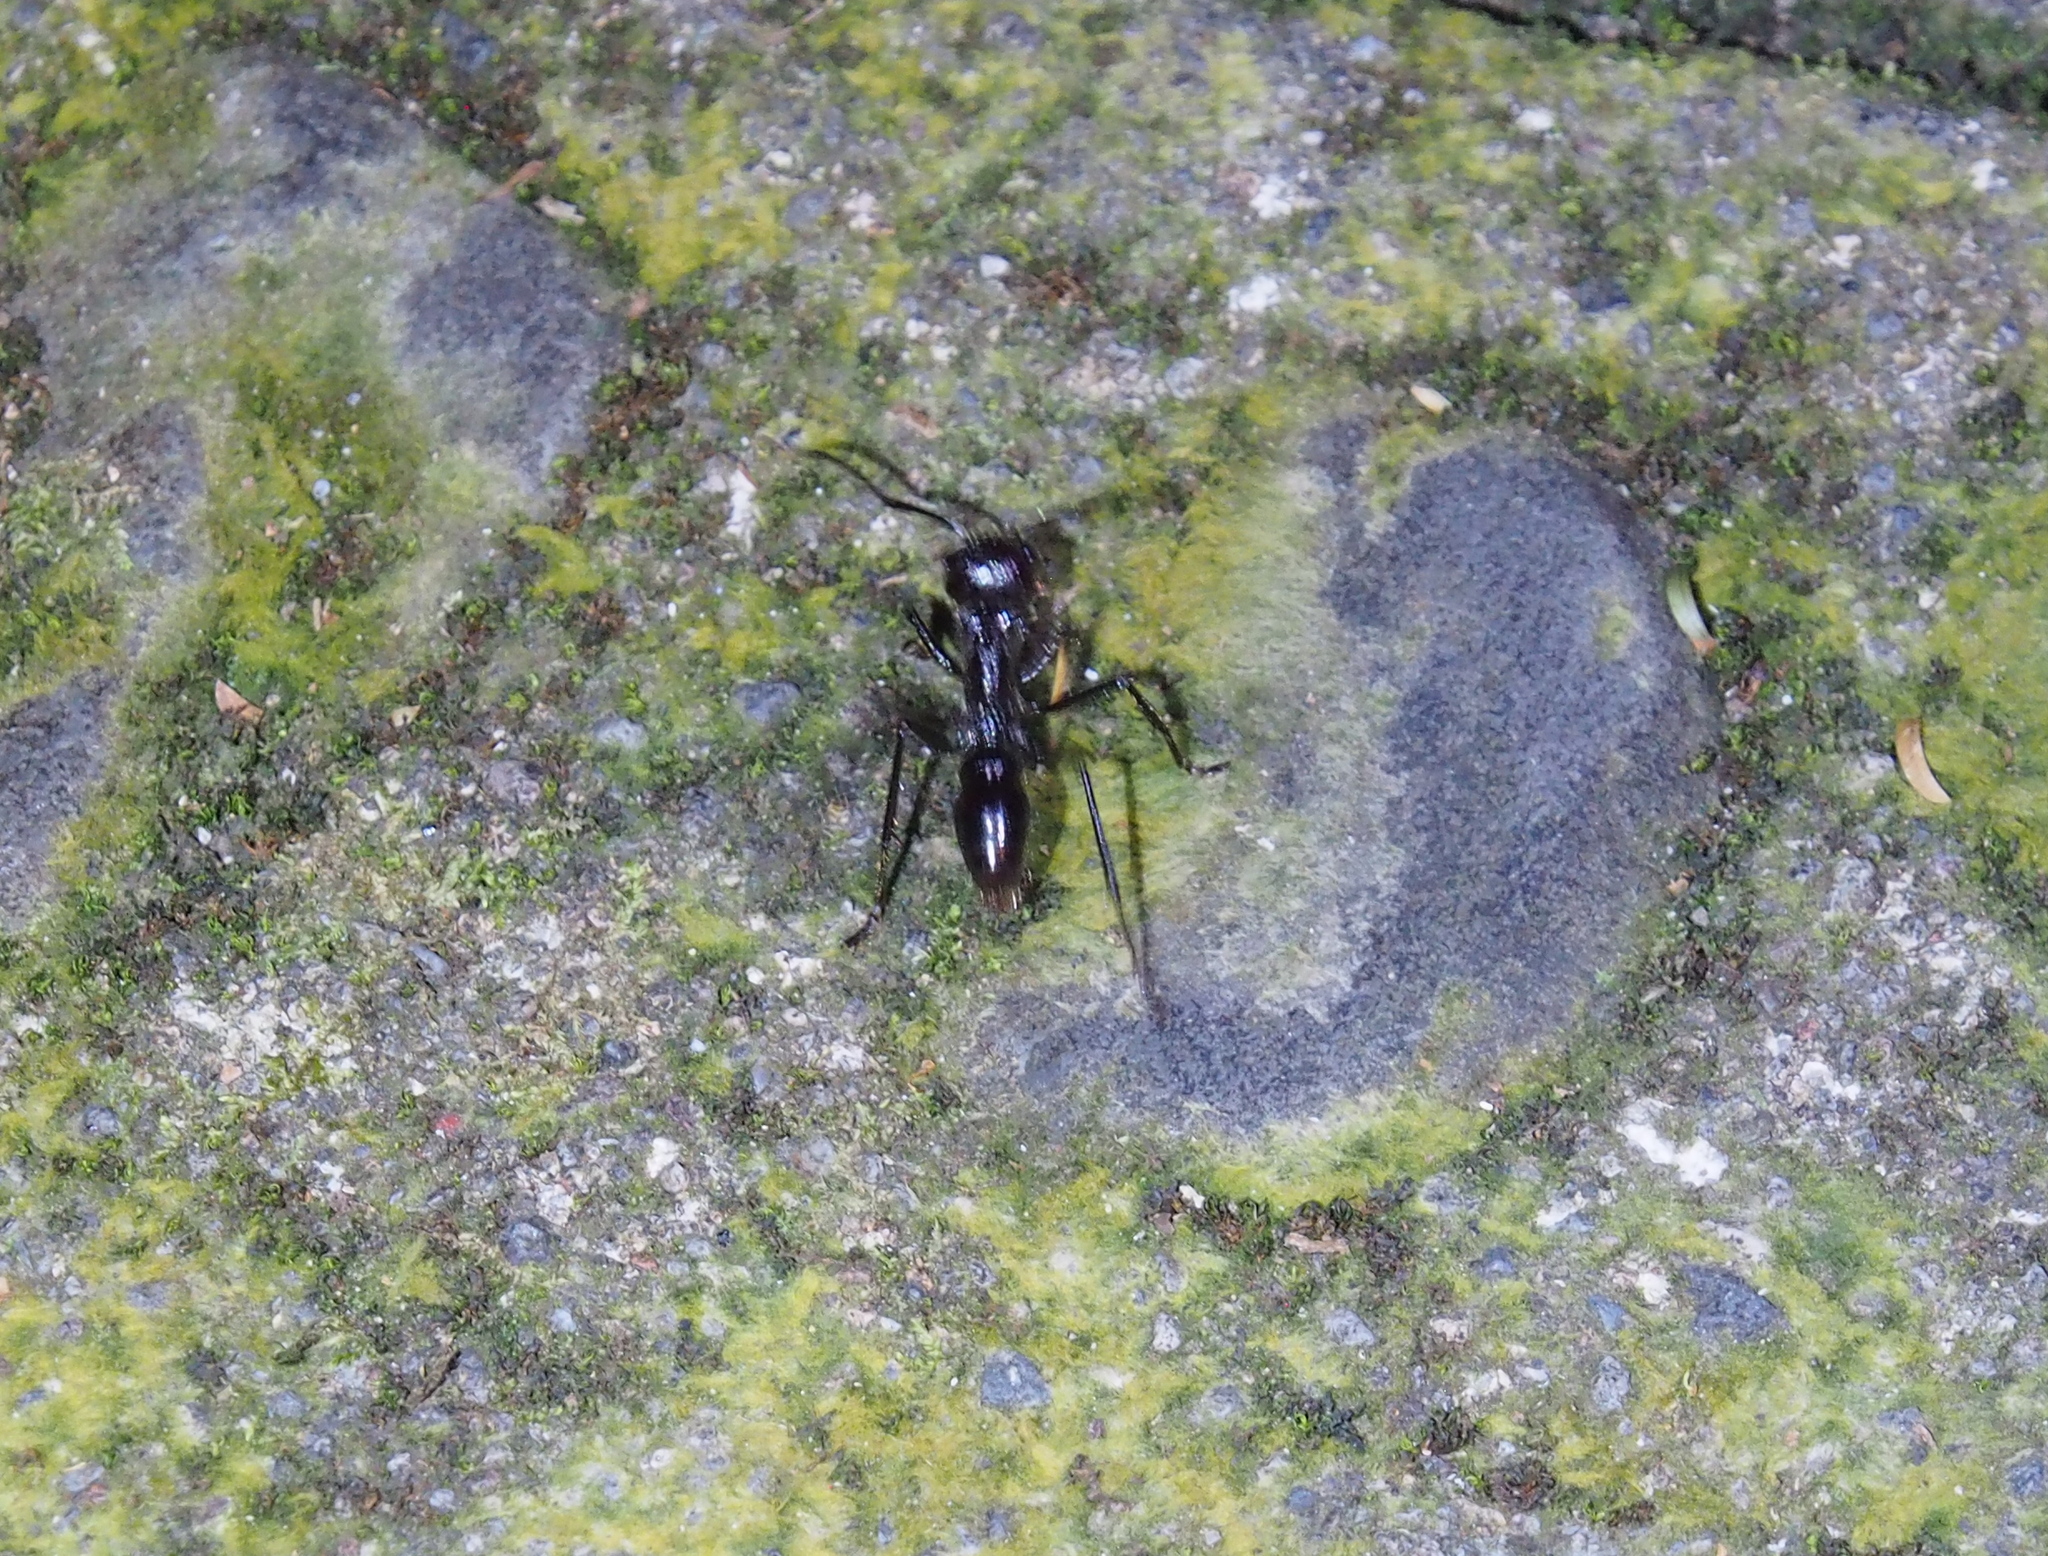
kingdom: Animalia
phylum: Arthropoda
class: Insecta
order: Hymenoptera
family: Formicidae
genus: Paraponera
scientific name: Paraponera clavata
